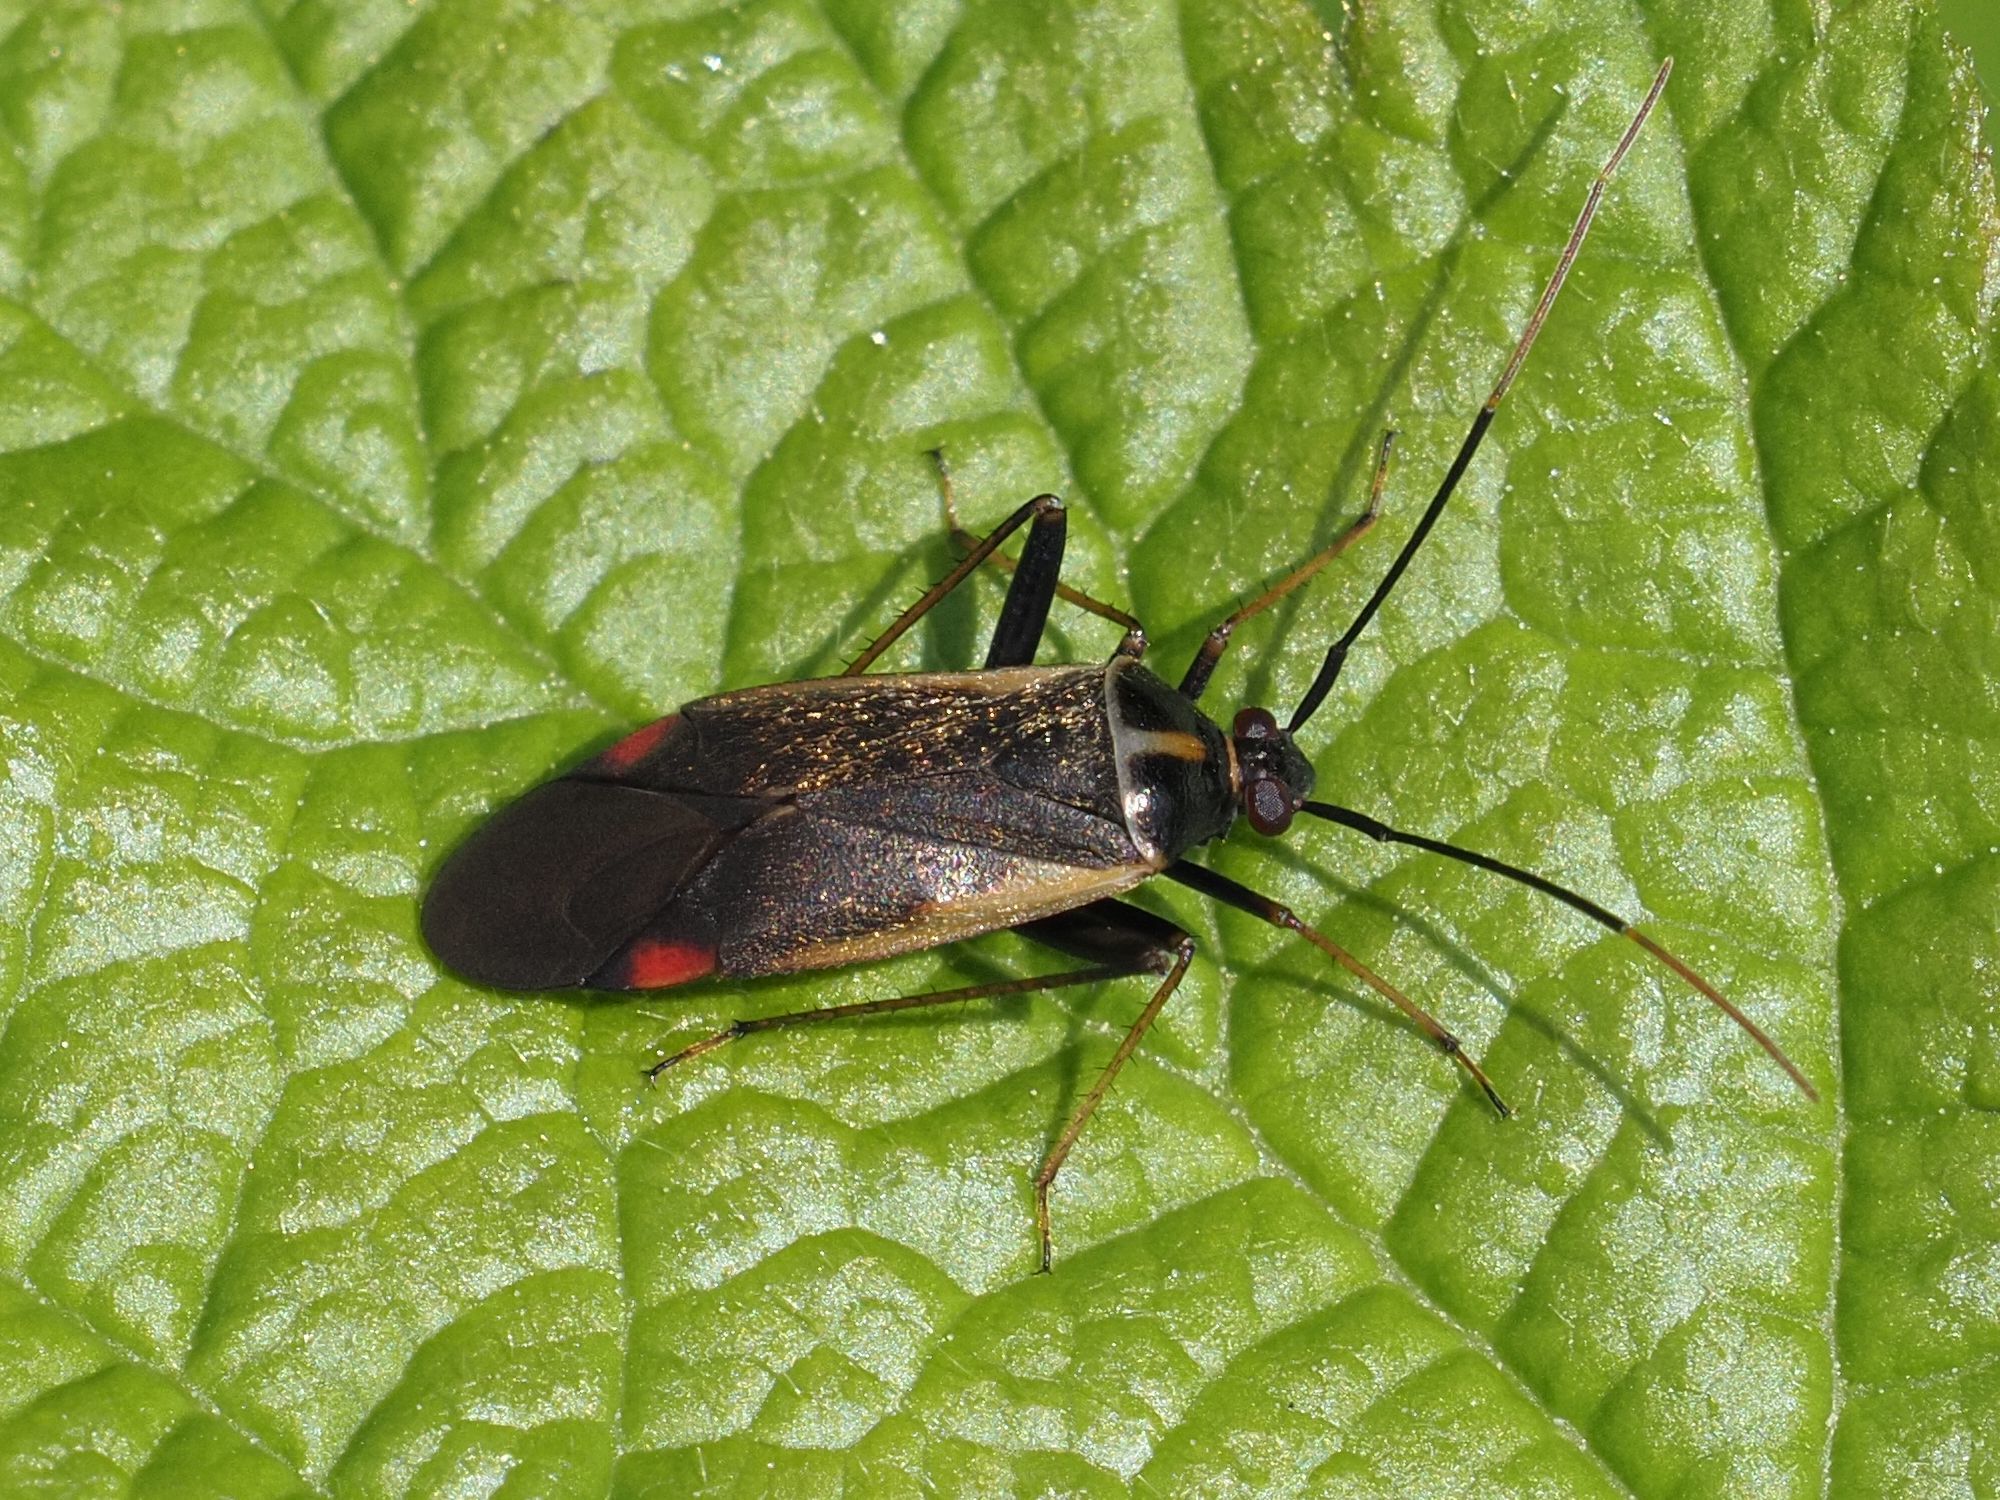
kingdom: Animalia
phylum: Arthropoda
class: Insecta
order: Hemiptera
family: Miridae
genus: Adelphocoris
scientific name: Adelphocoris seticornis
